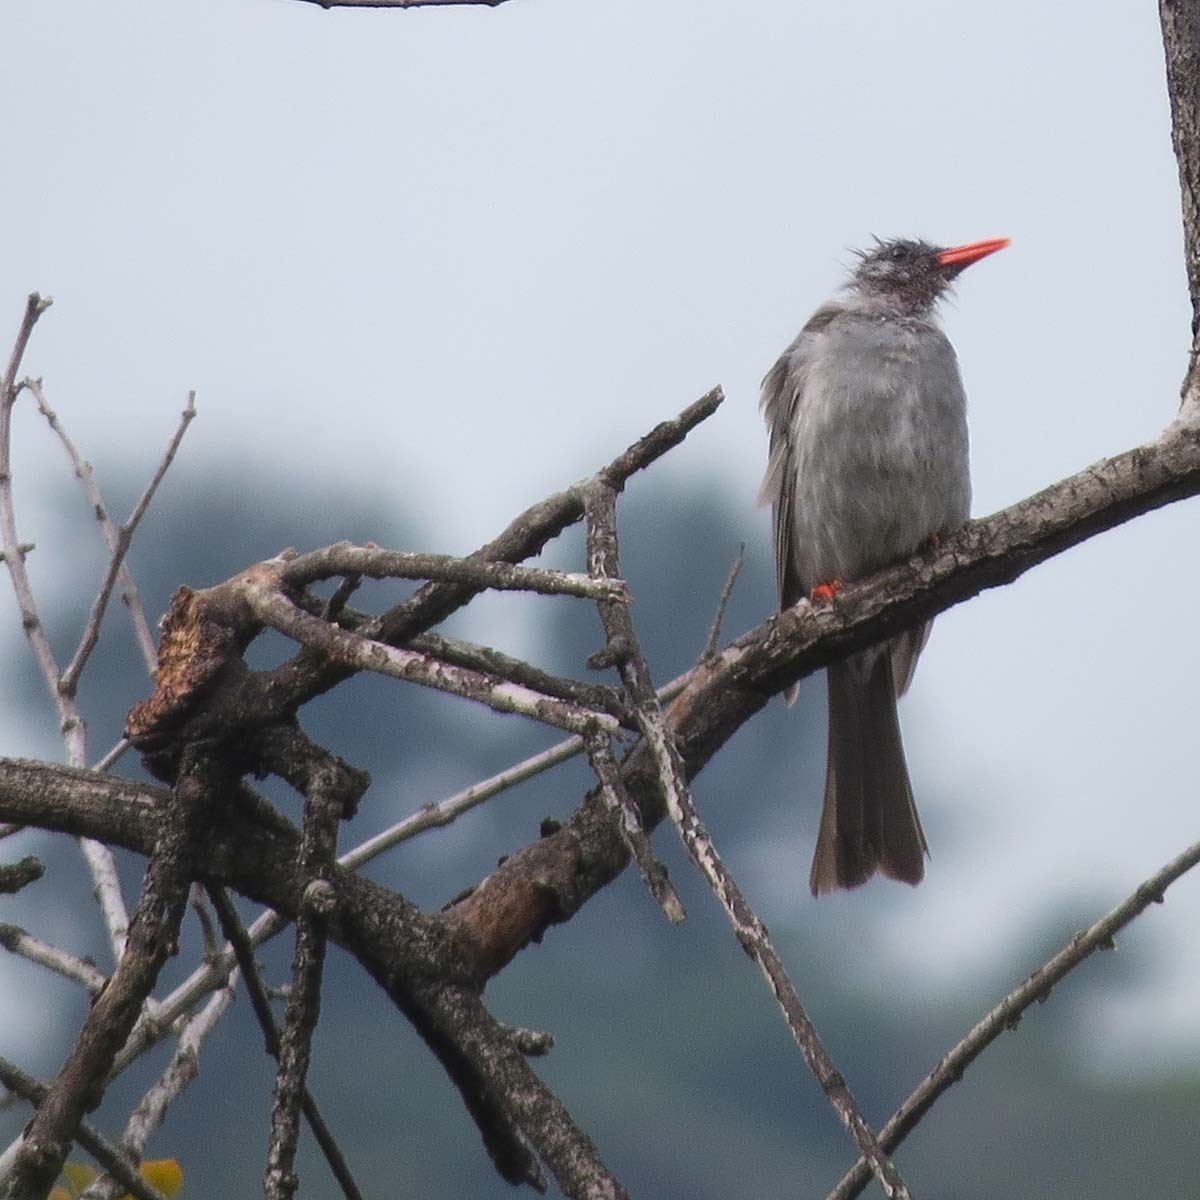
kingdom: Animalia
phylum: Chordata
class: Aves
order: Passeriformes
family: Pycnonotidae
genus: Hypsipetes
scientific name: Hypsipetes leucocephalus
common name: Black bulbul
